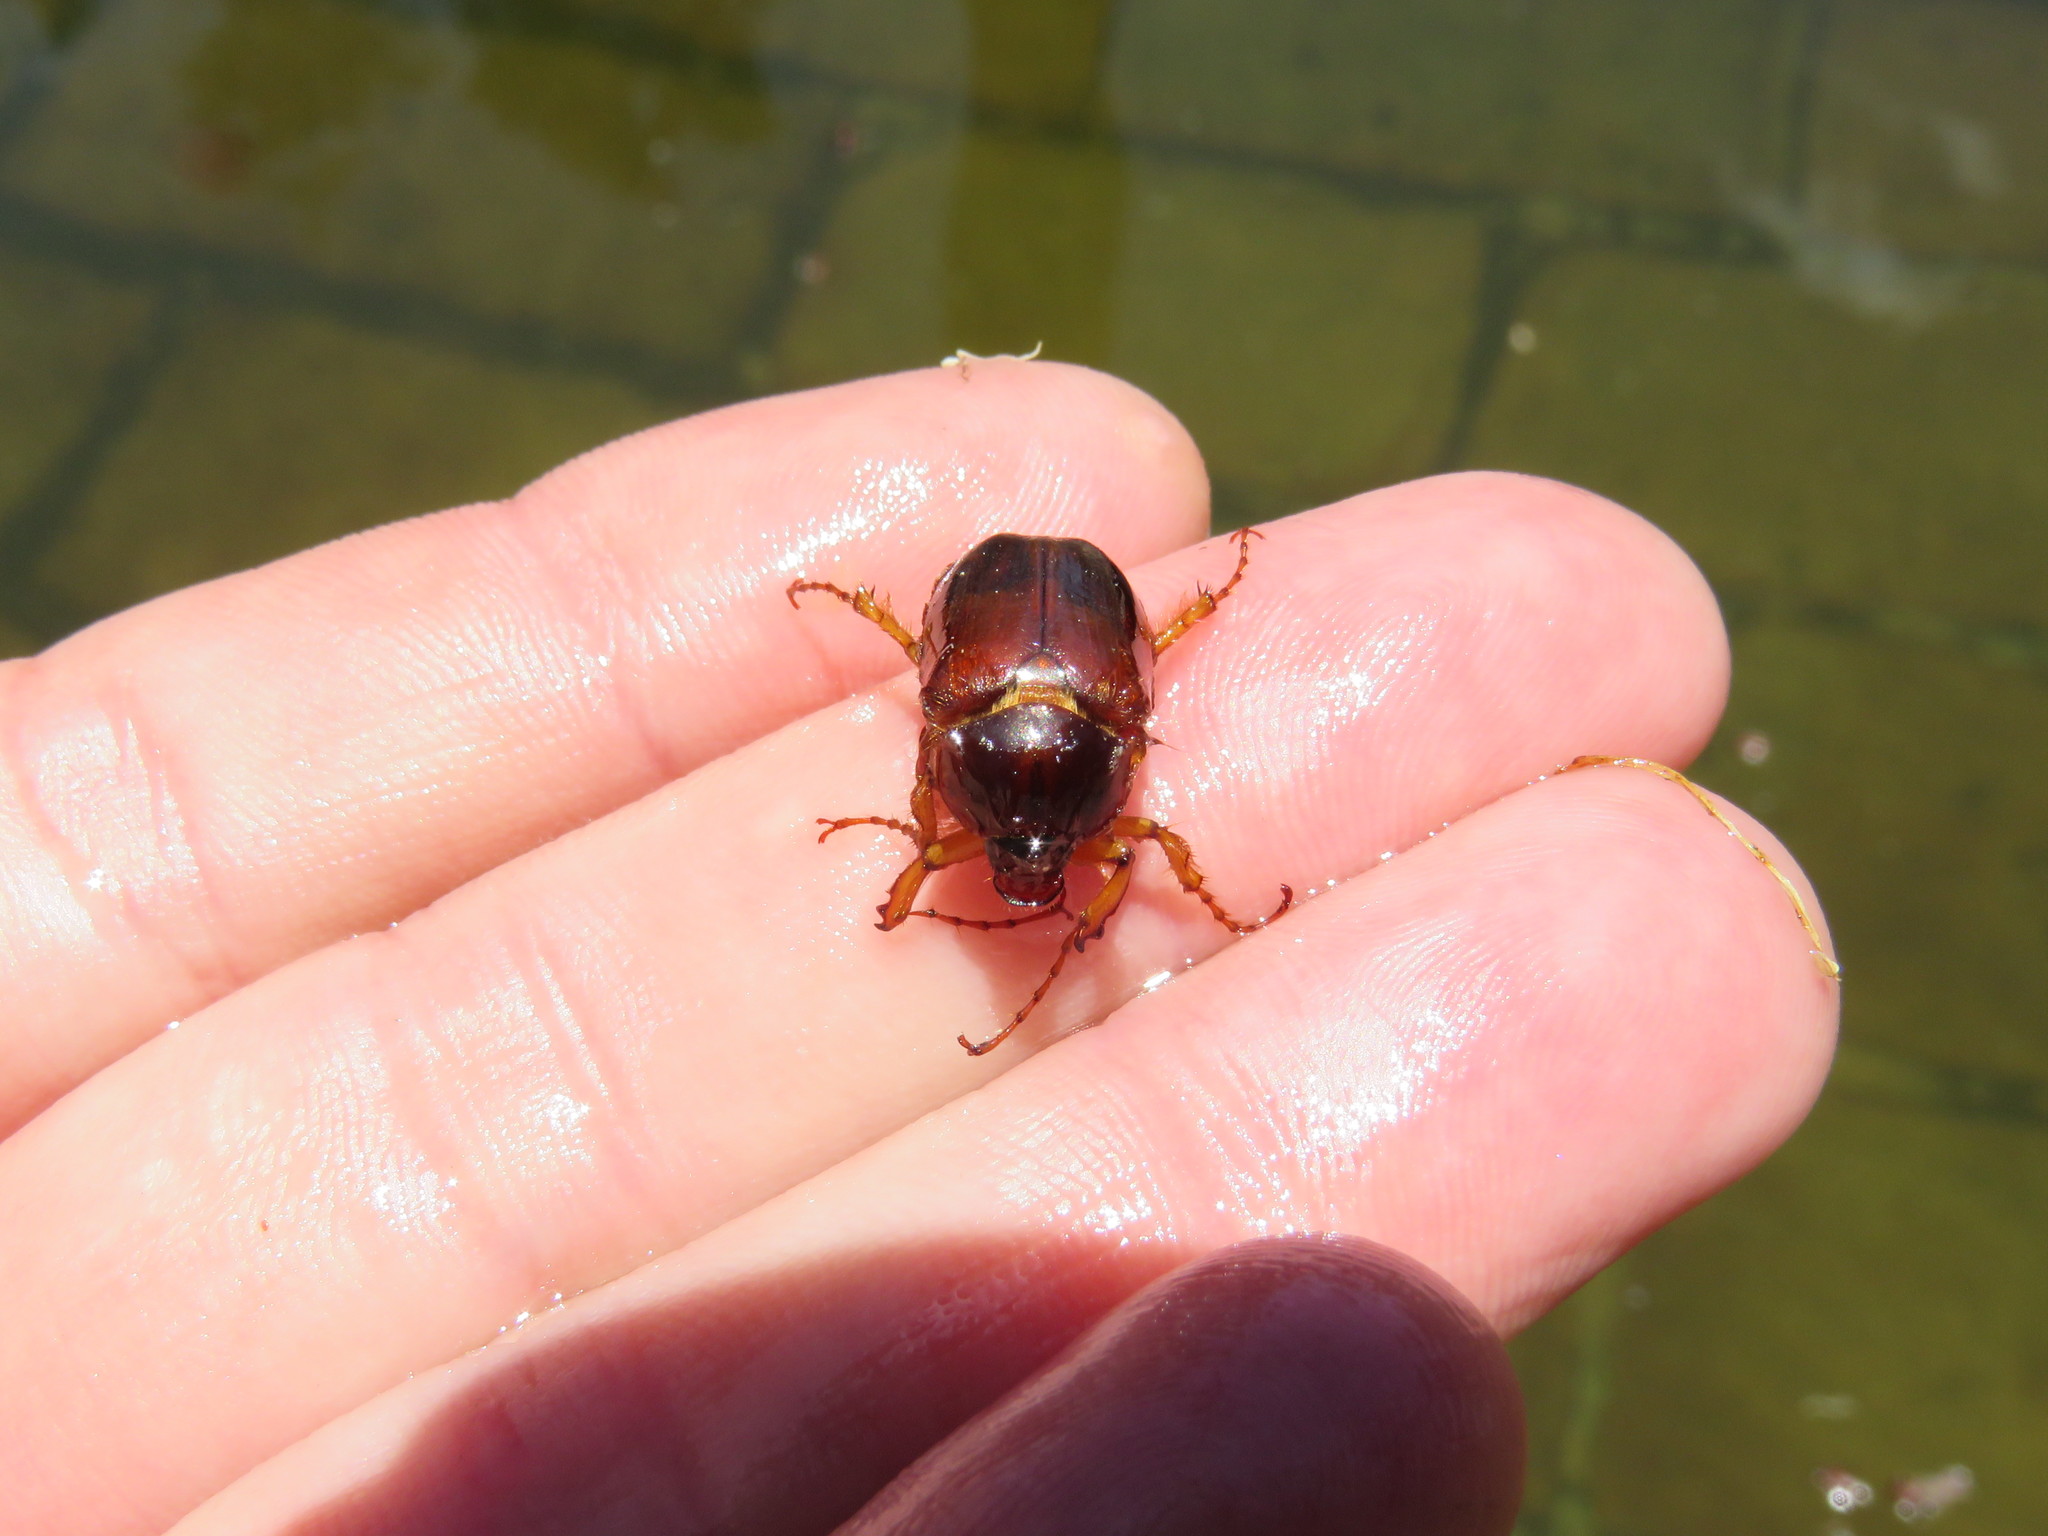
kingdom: Animalia
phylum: Arthropoda
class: Insecta
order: Coleoptera
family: Scarabaeidae
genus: Paulosawaya
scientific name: Paulosawaya ursina
